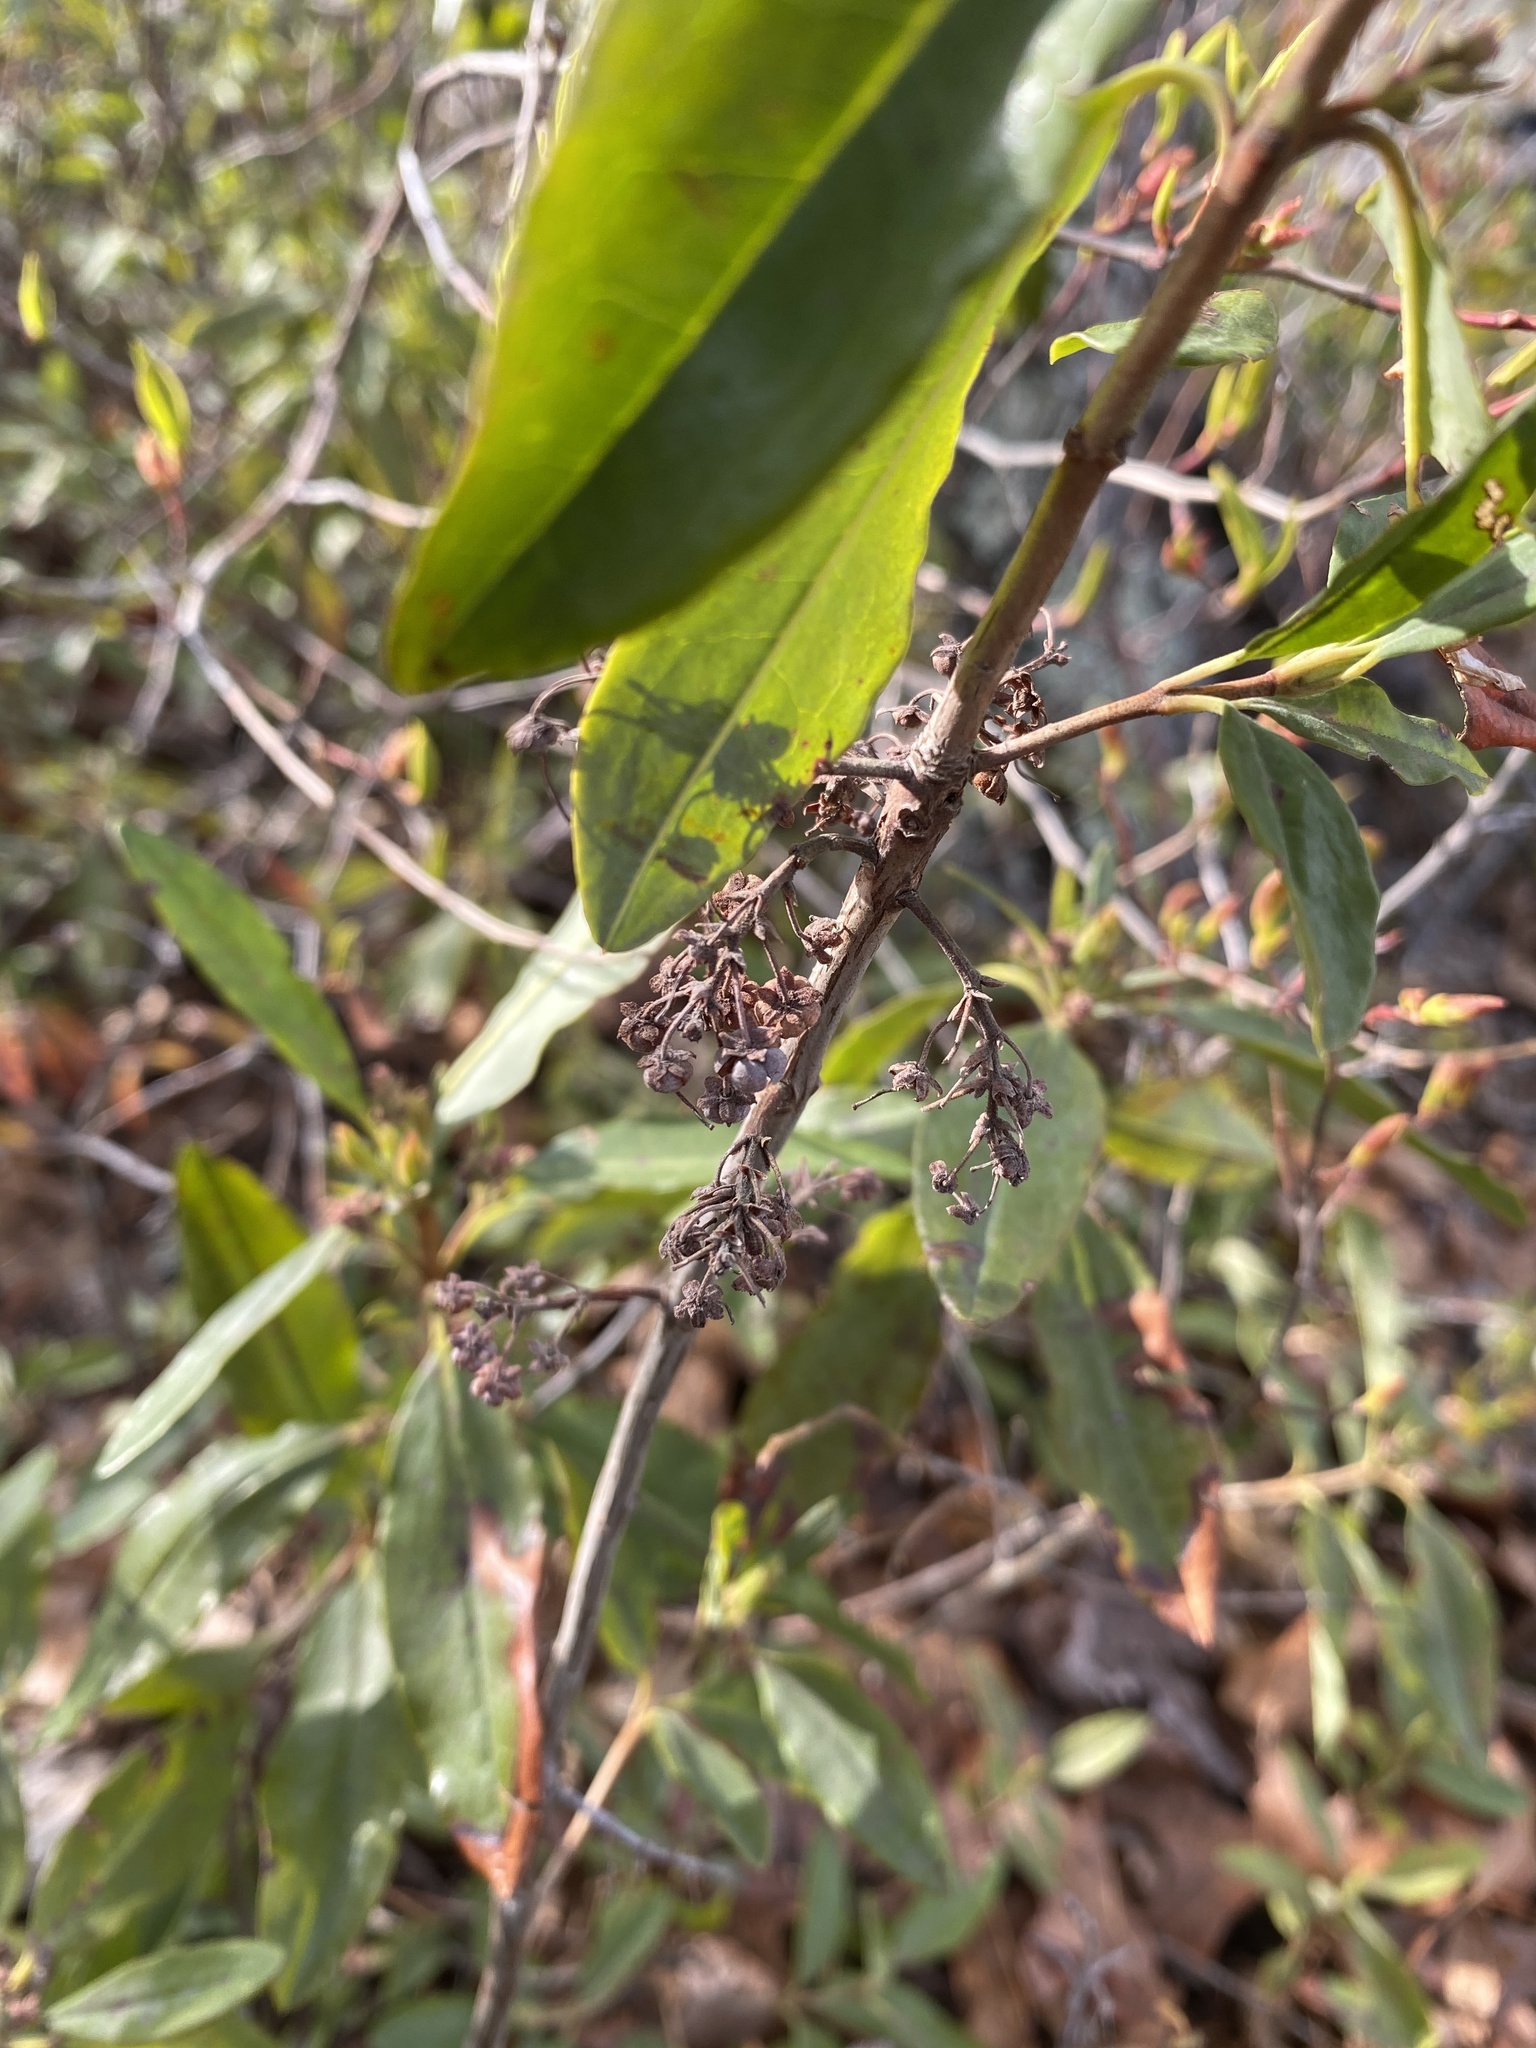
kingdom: Plantae
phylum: Tracheophyta
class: Magnoliopsida
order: Ericales
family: Clethraceae
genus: Clethra
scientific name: Clethra alnifolia
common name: Sweet pepperbush
